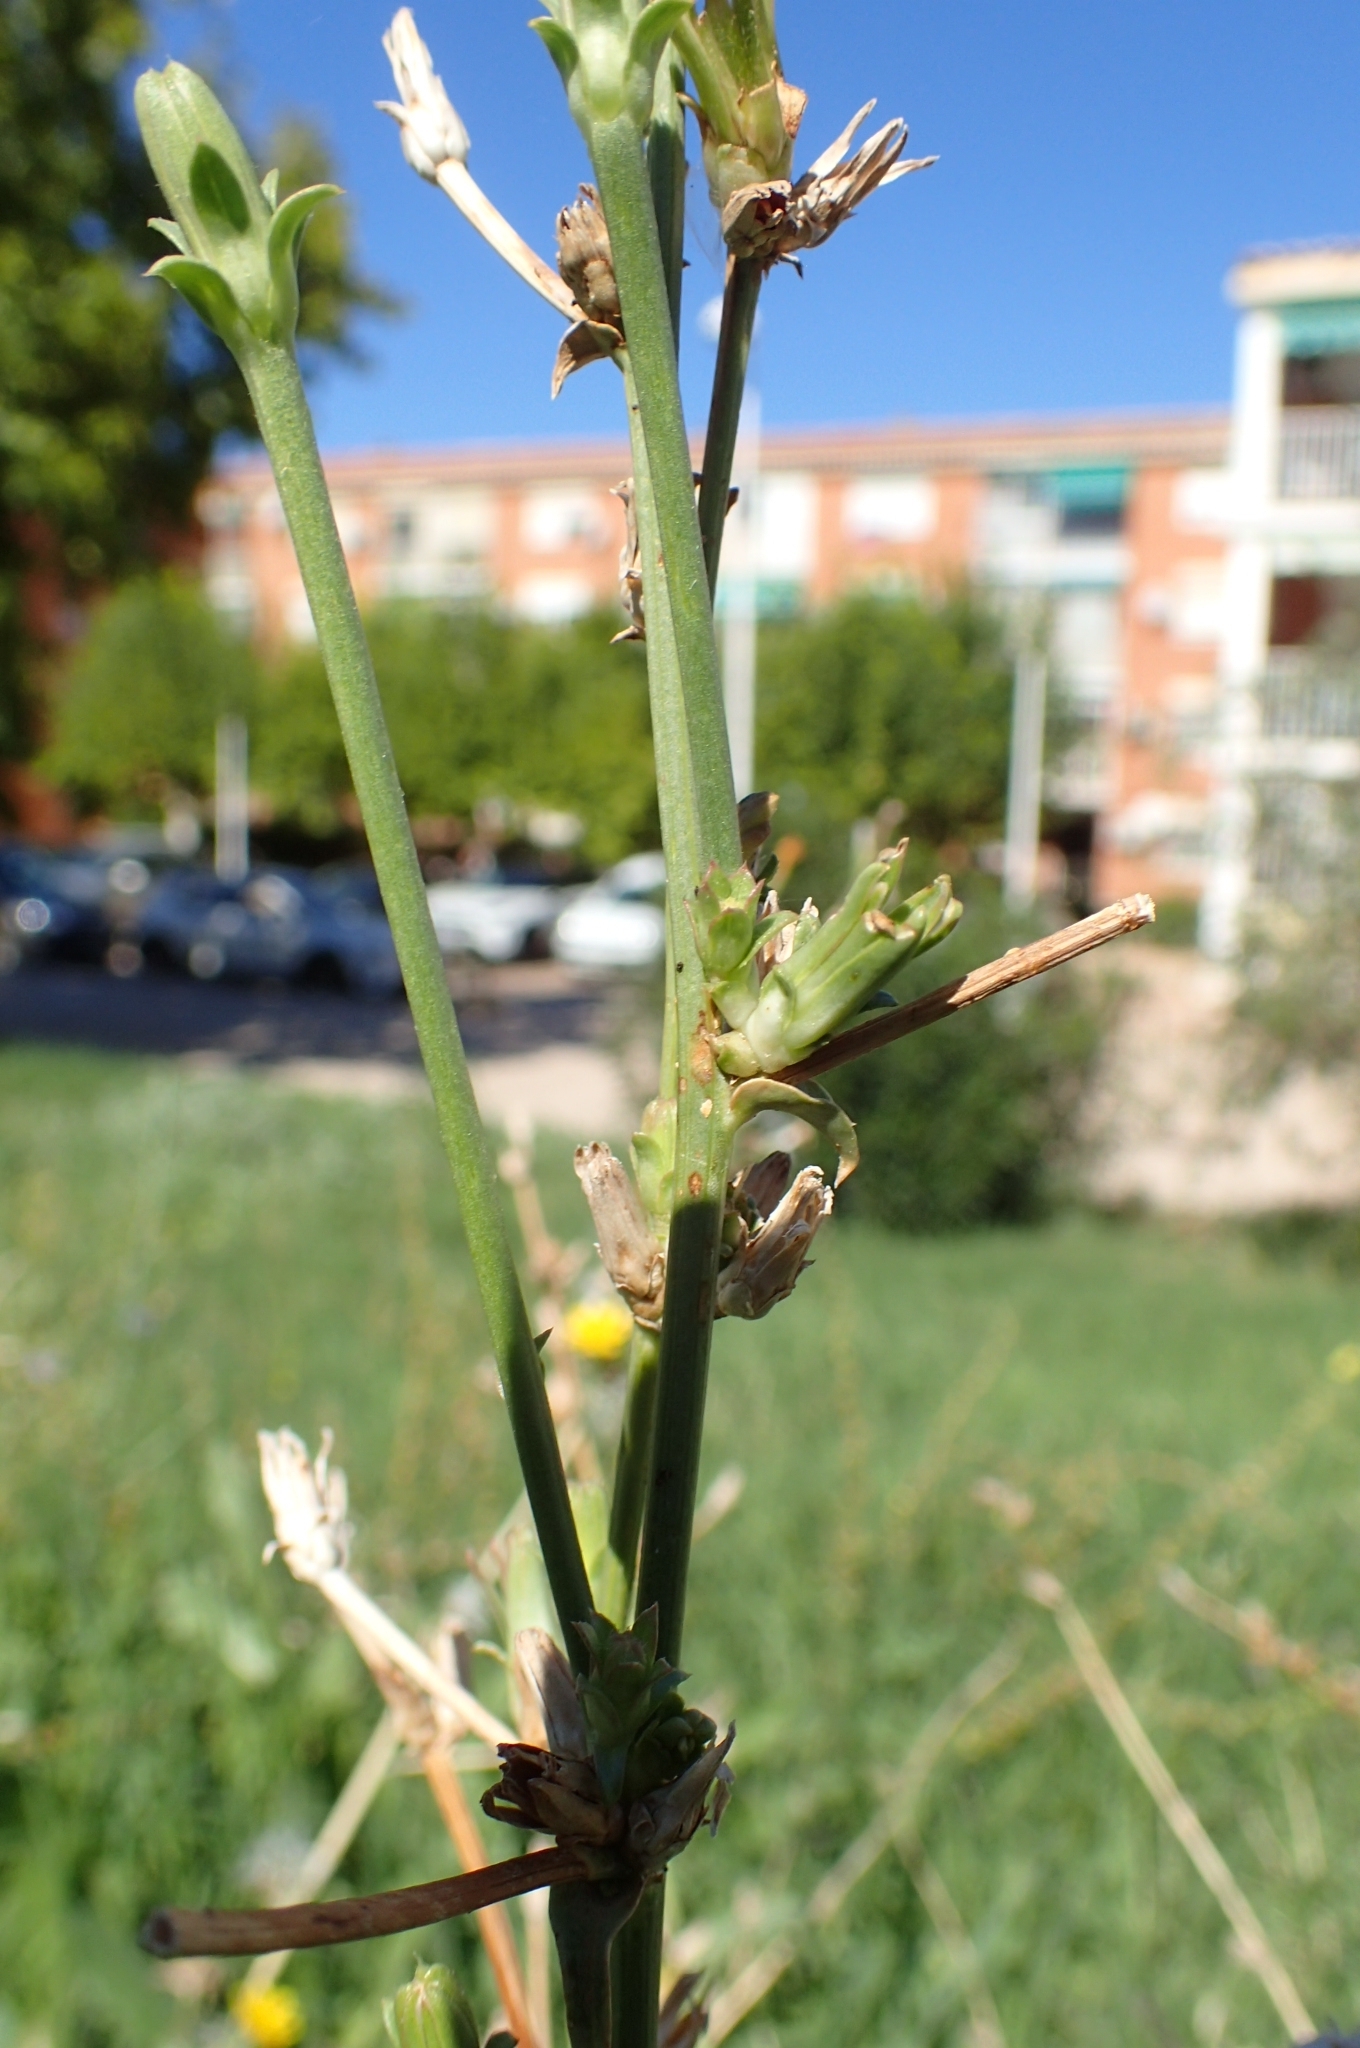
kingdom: Plantae
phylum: Tracheophyta
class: Magnoliopsida
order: Asterales
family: Asteraceae
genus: Cichorium
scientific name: Cichorium intybus
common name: Chicory
